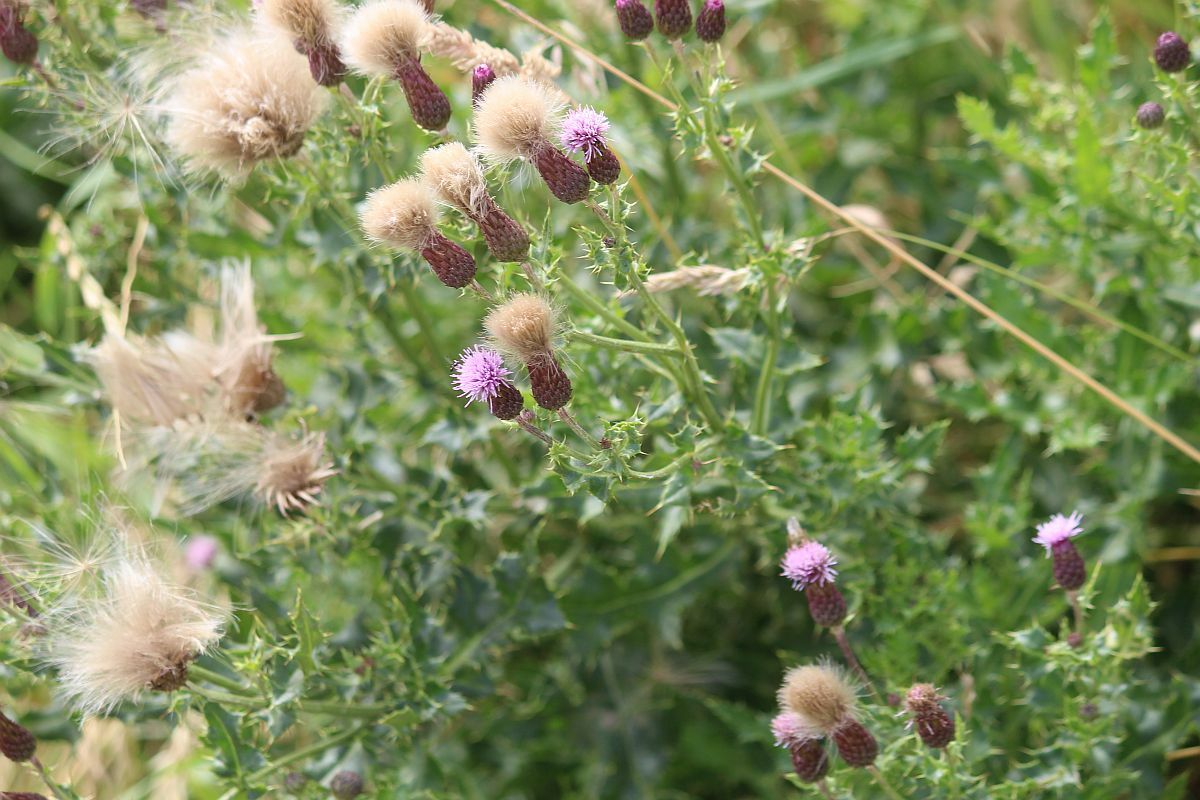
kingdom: Plantae
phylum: Tracheophyta
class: Magnoliopsida
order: Asterales
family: Asteraceae
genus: Cirsium
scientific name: Cirsium arvense
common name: Creeping thistle
